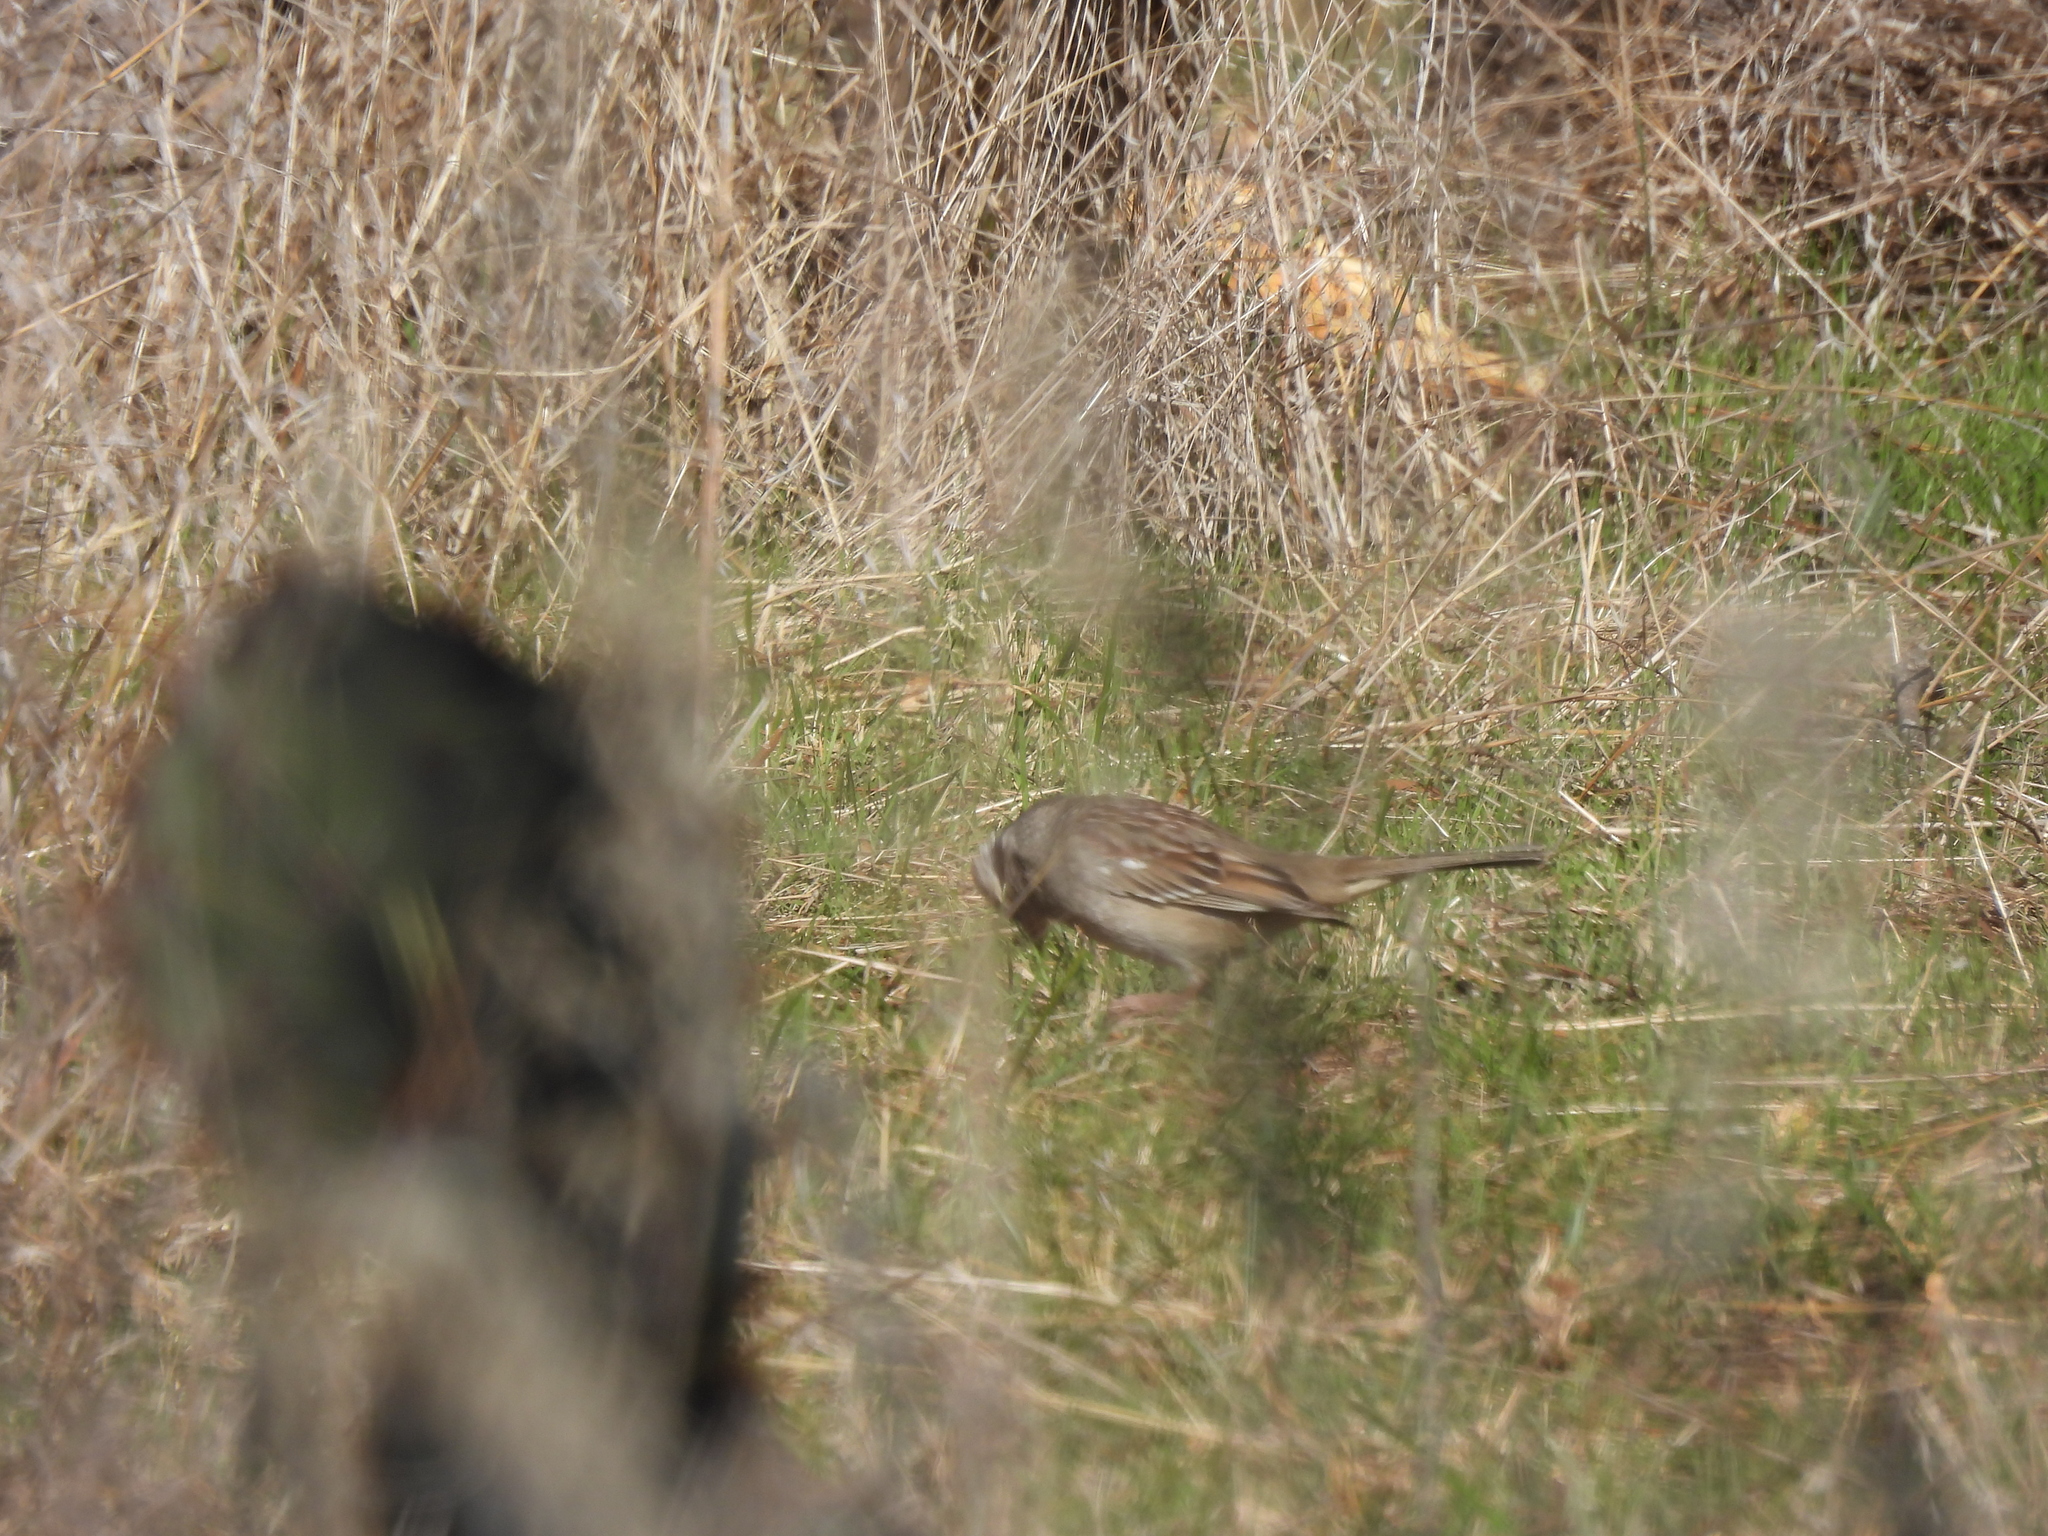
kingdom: Animalia
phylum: Chordata
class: Aves
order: Passeriformes
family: Passerellidae
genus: Zonotrichia
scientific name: Zonotrichia leucophrys
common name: White-crowned sparrow
